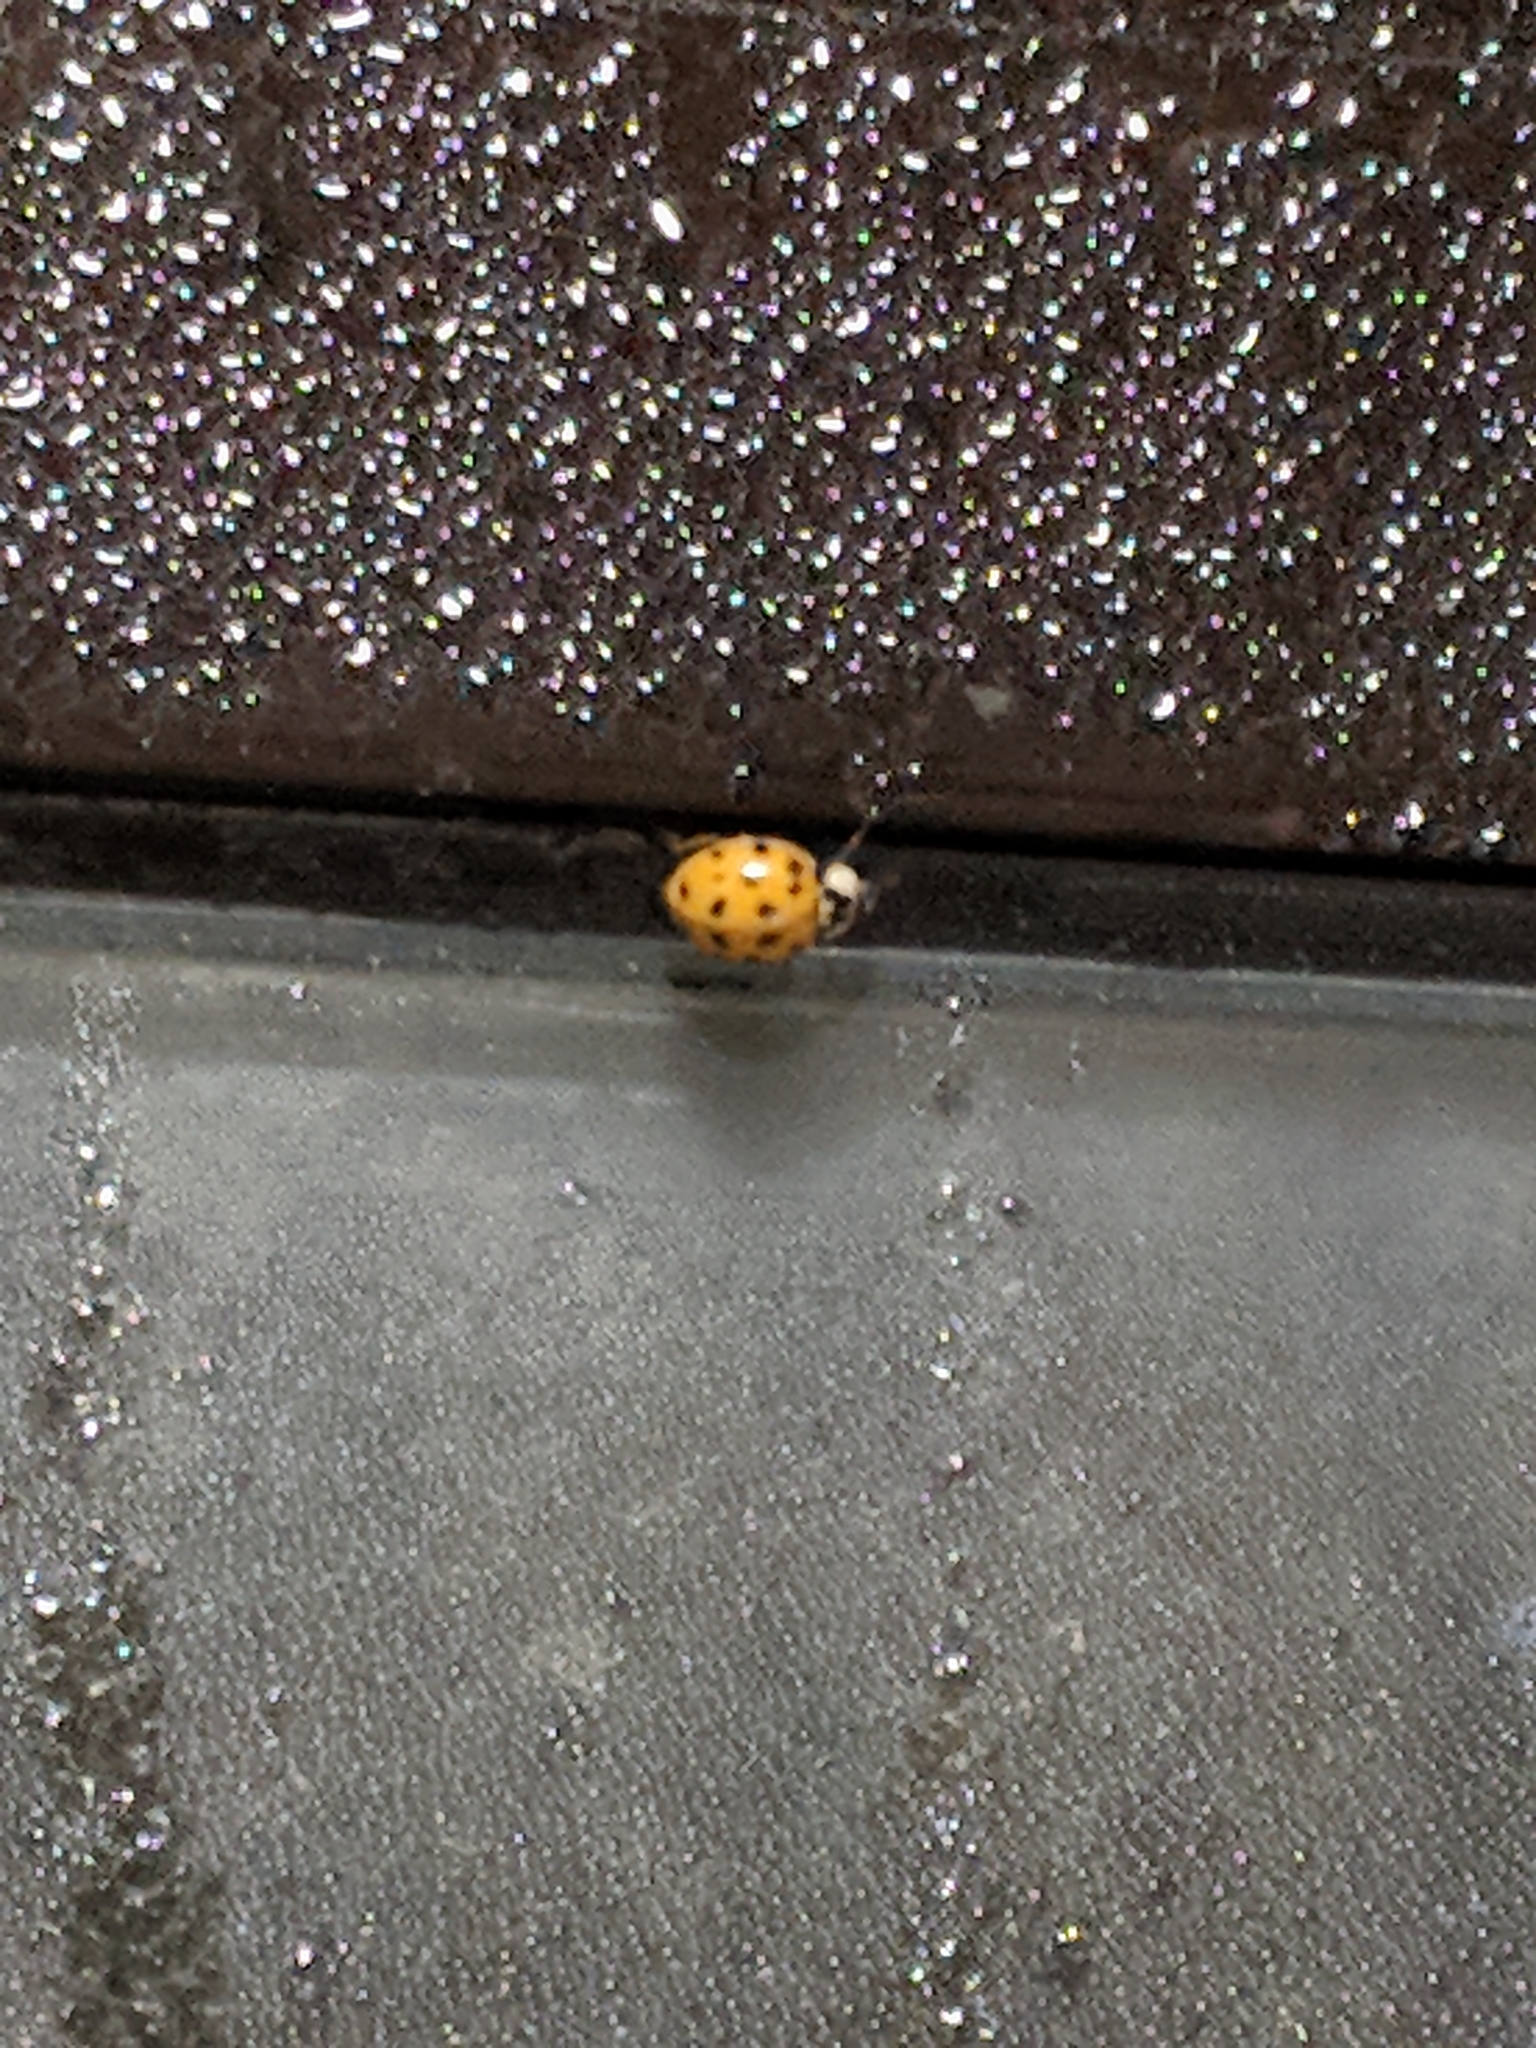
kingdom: Animalia
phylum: Arthropoda
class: Insecta
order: Coleoptera
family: Coccinellidae
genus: Harmonia
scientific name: Harmonia axyridis
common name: Harlequin ladybird
